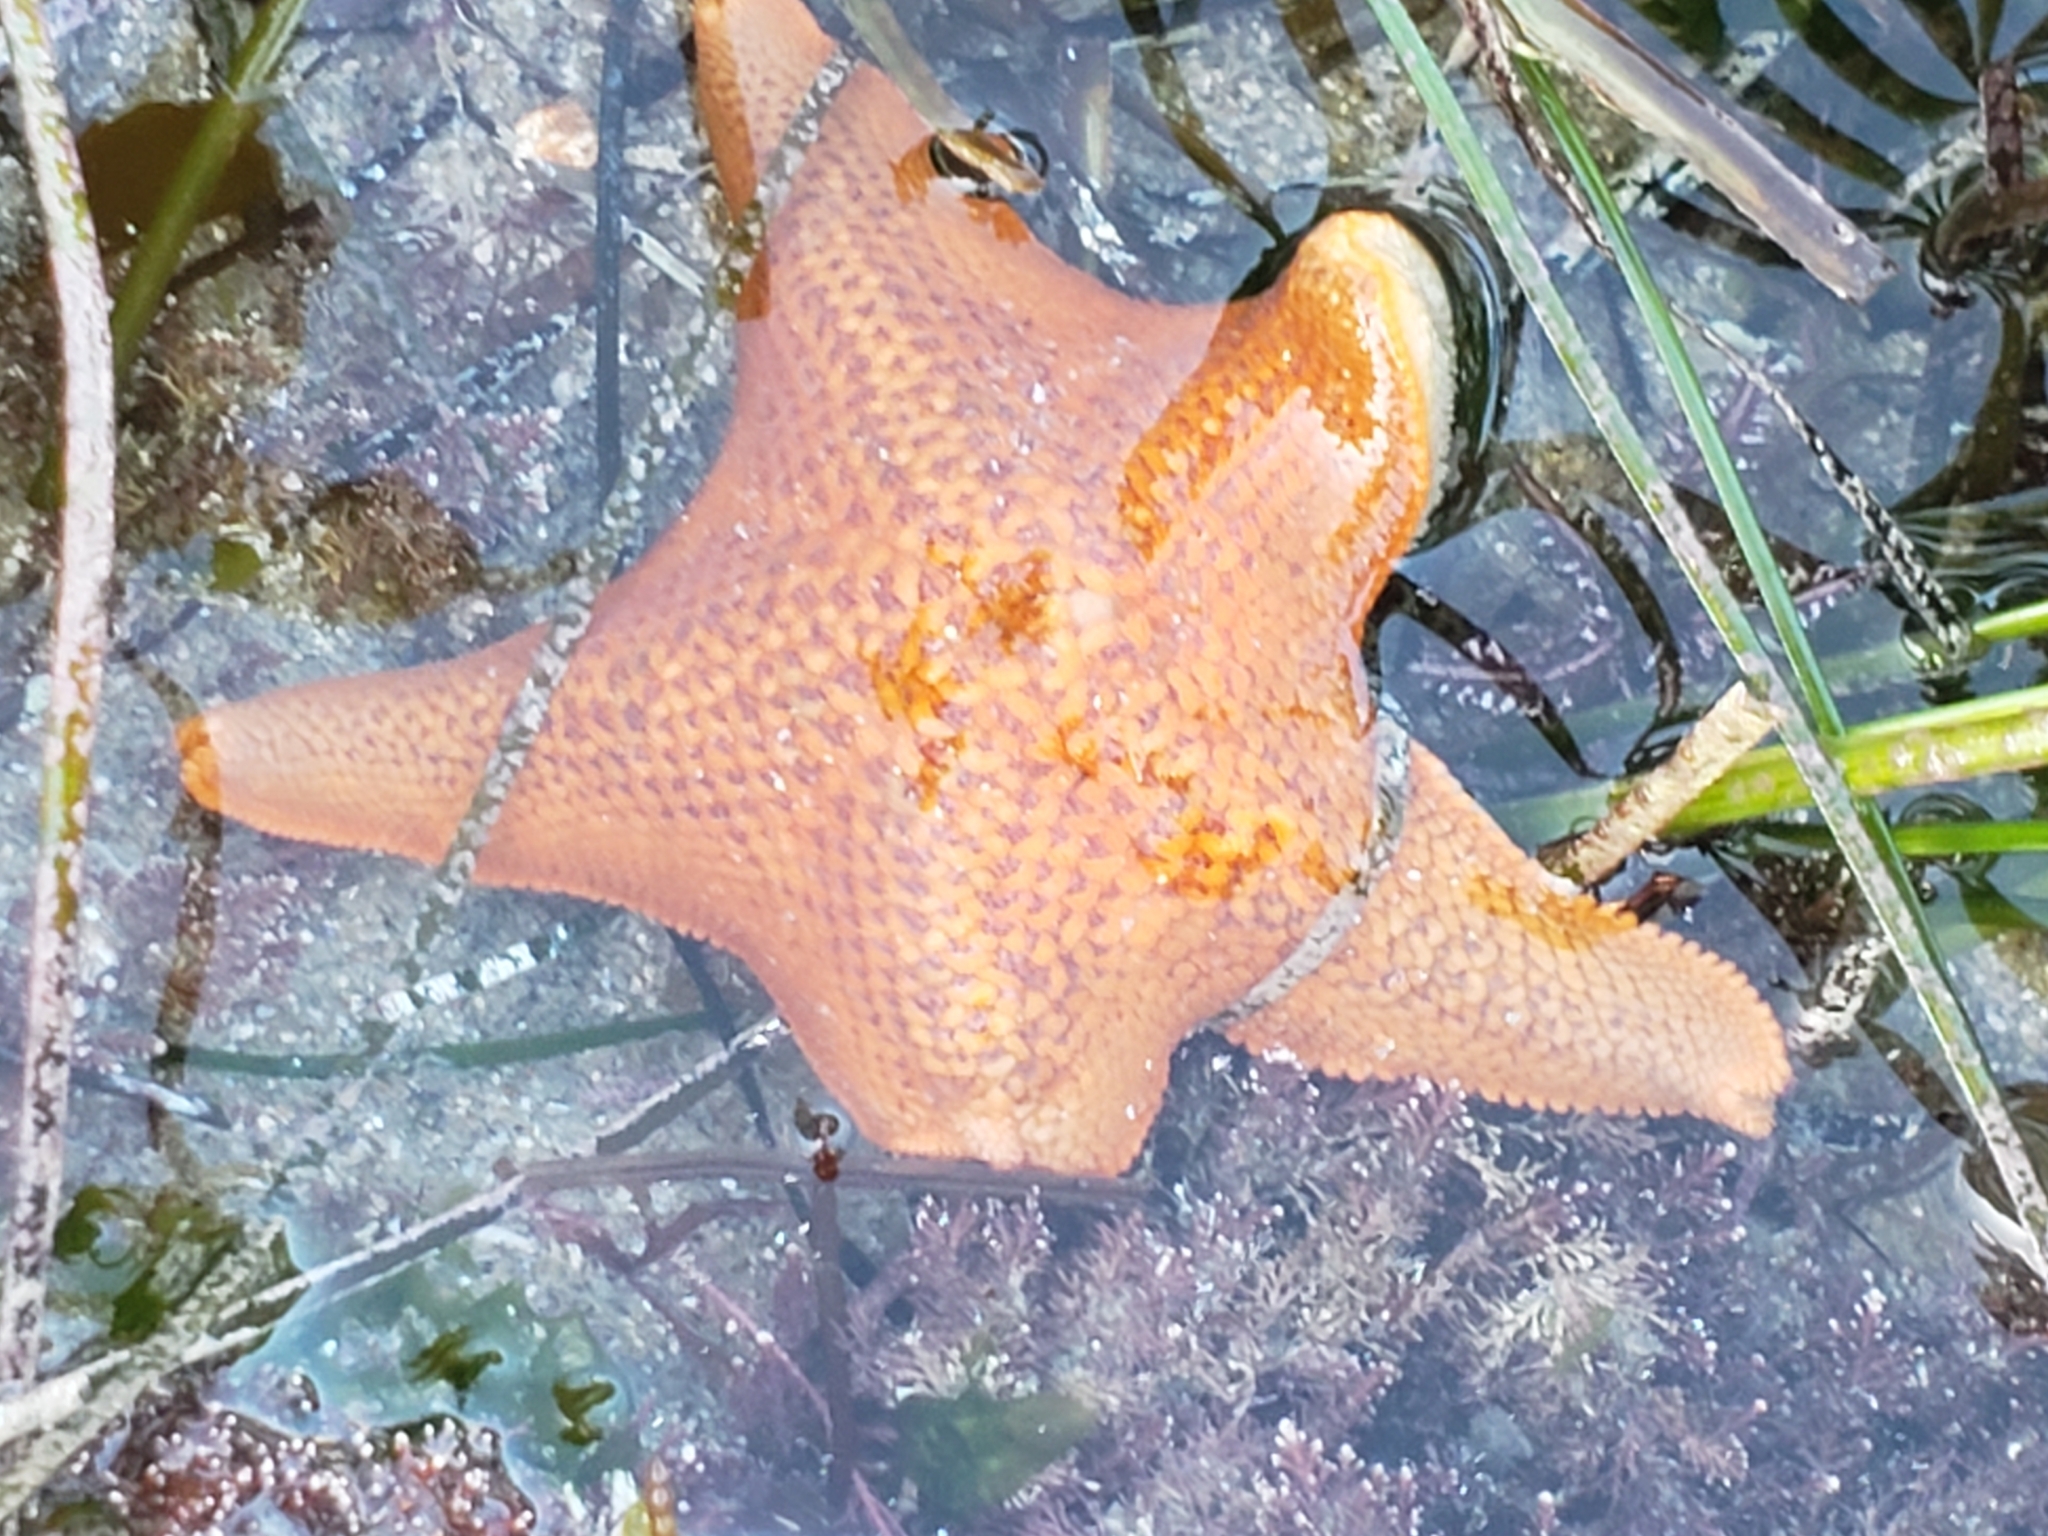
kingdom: Animalia
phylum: Echinodermata
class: Asteroidea
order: Valvatida
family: Asterinidae
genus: Patiria
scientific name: Patiria miniata
